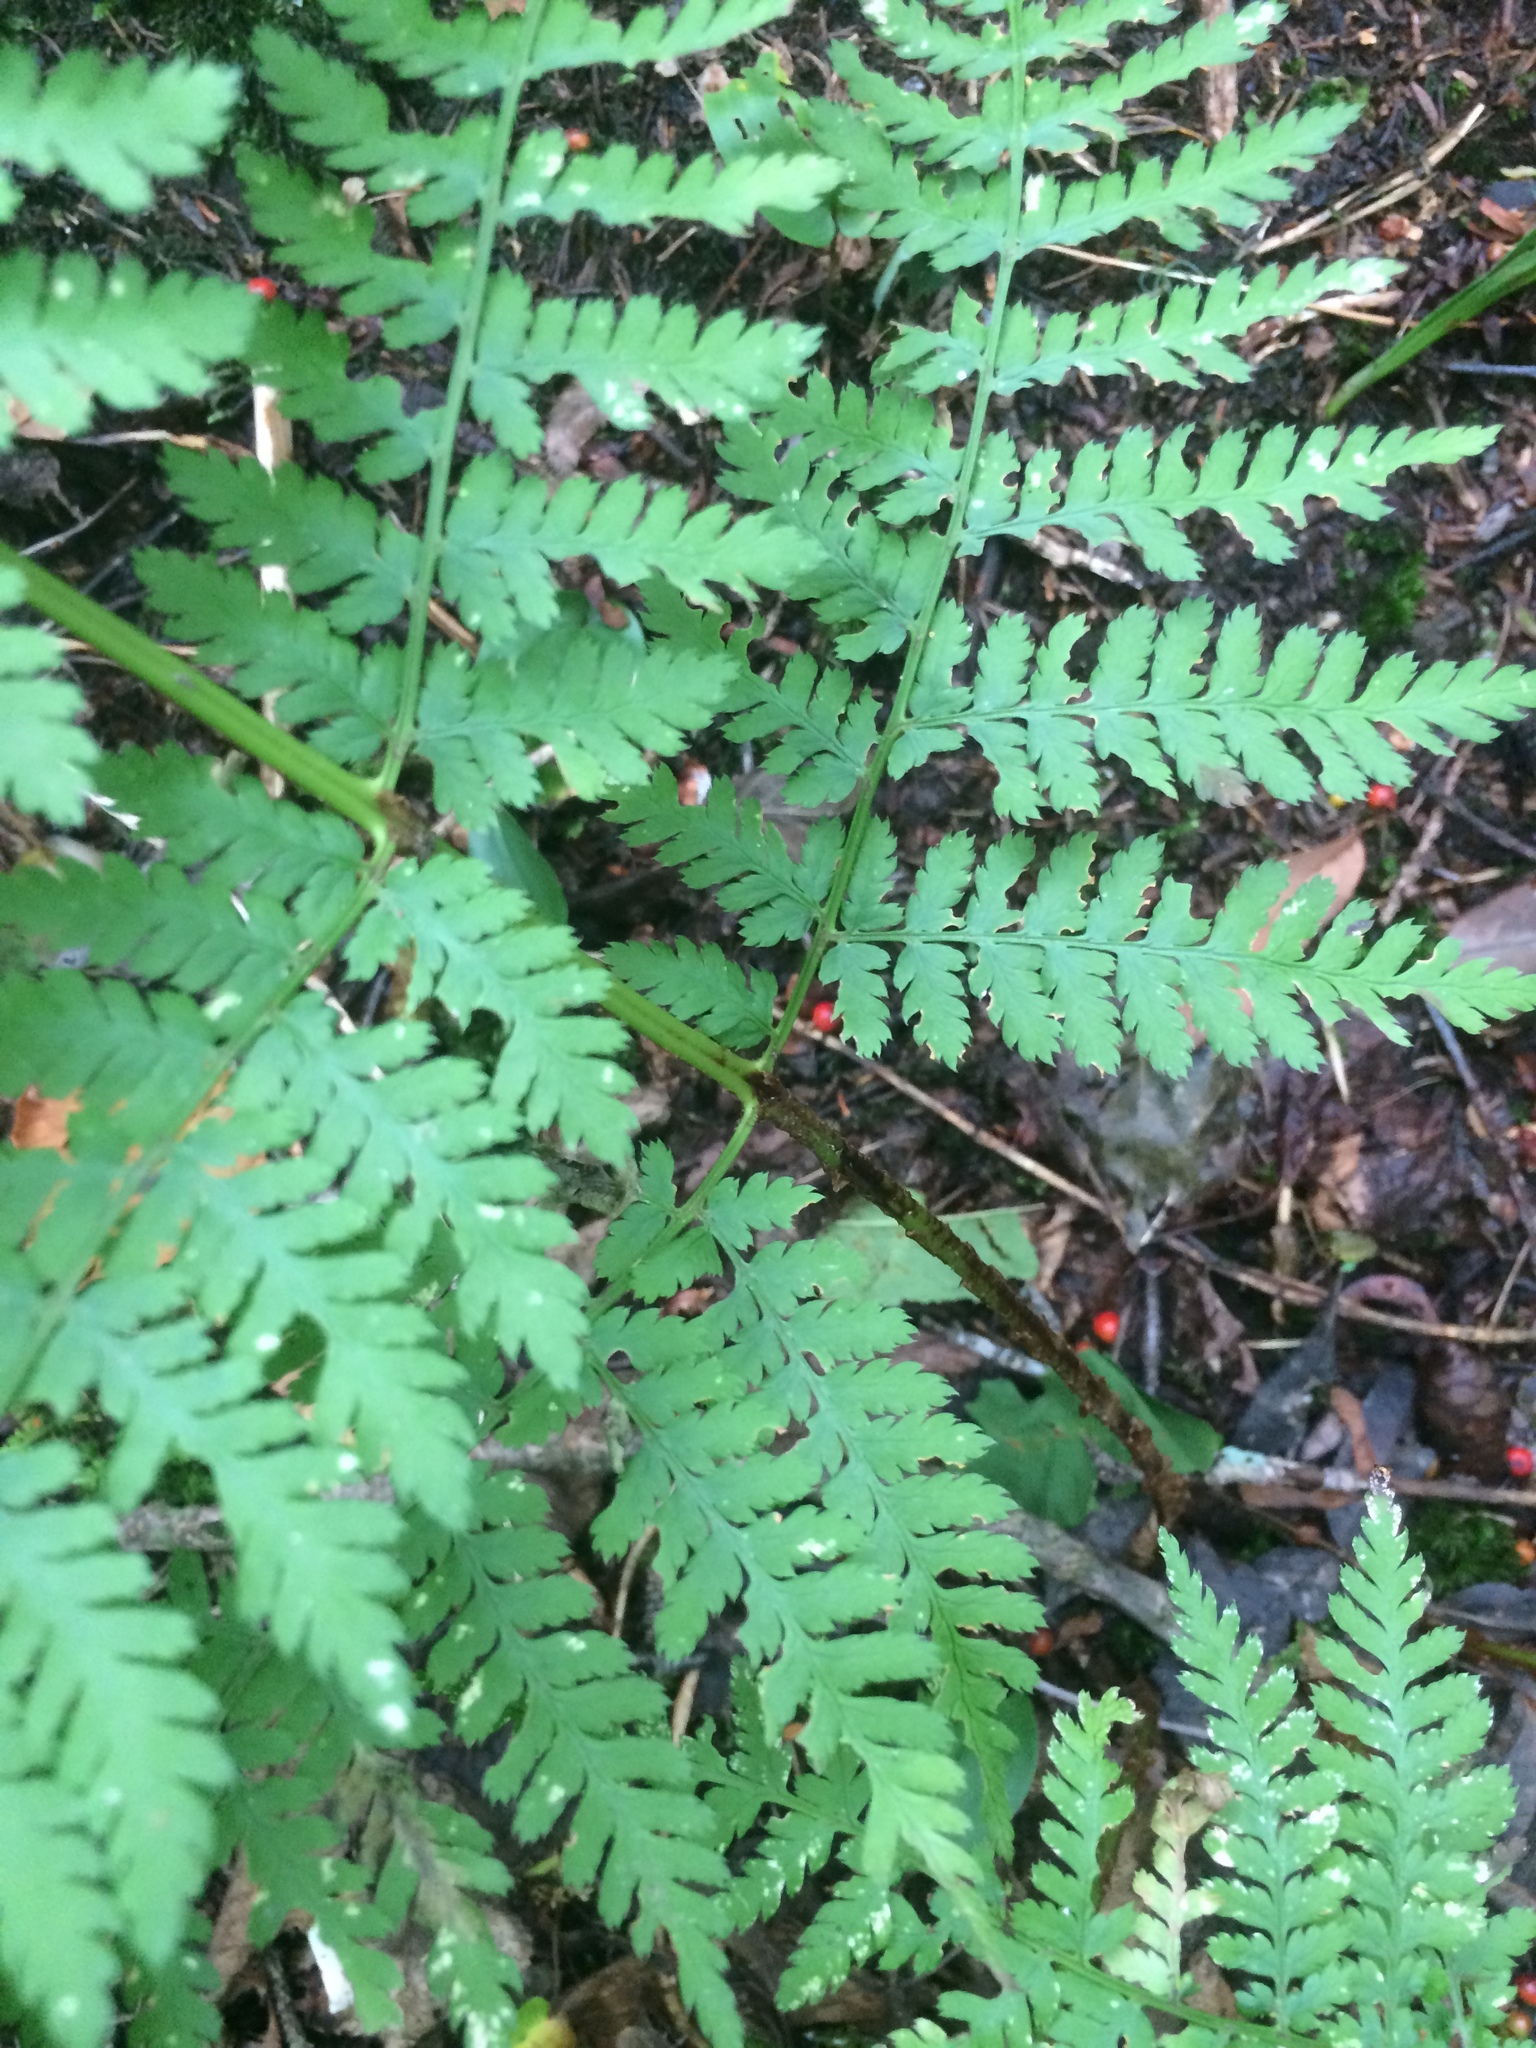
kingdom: Plantae
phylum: Tracheophyta
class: Polypodiopsida
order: Polypodiales
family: Dryopteridaceae
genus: Dryopteris
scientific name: Dryopteris campyloptera
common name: Mountain wood fern
